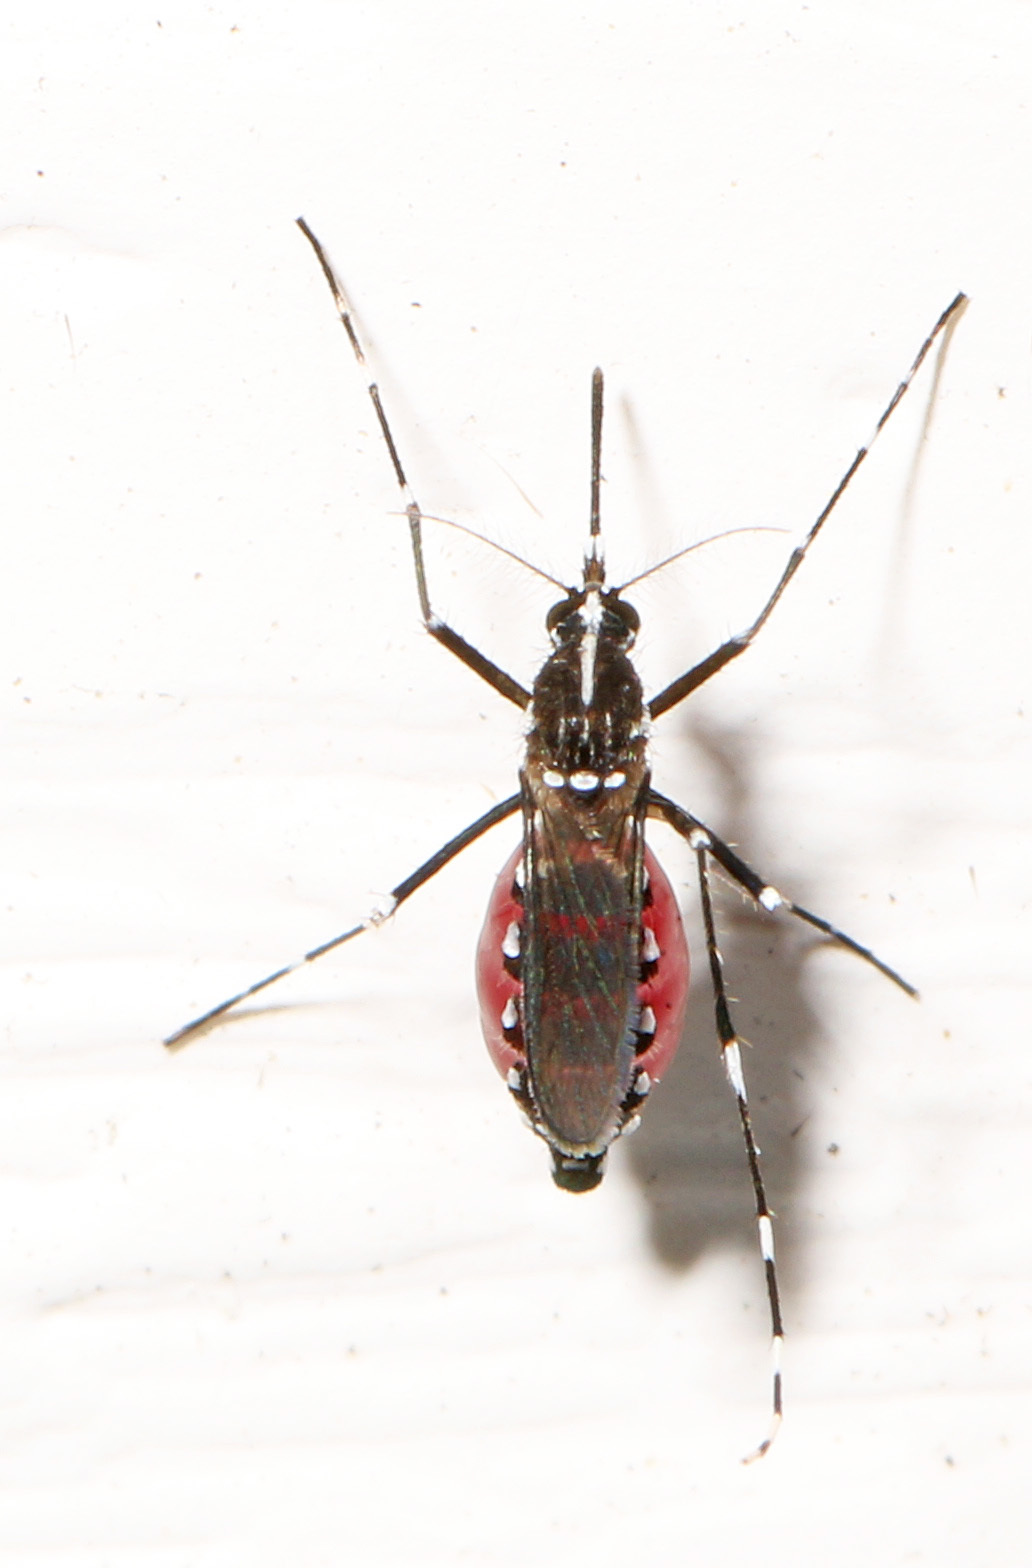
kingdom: Animalia
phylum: Arthropoda
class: Insecta
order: Diptera
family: Culicidae
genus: Aedes
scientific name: Aedes albopictus
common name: Tiger mosquito
